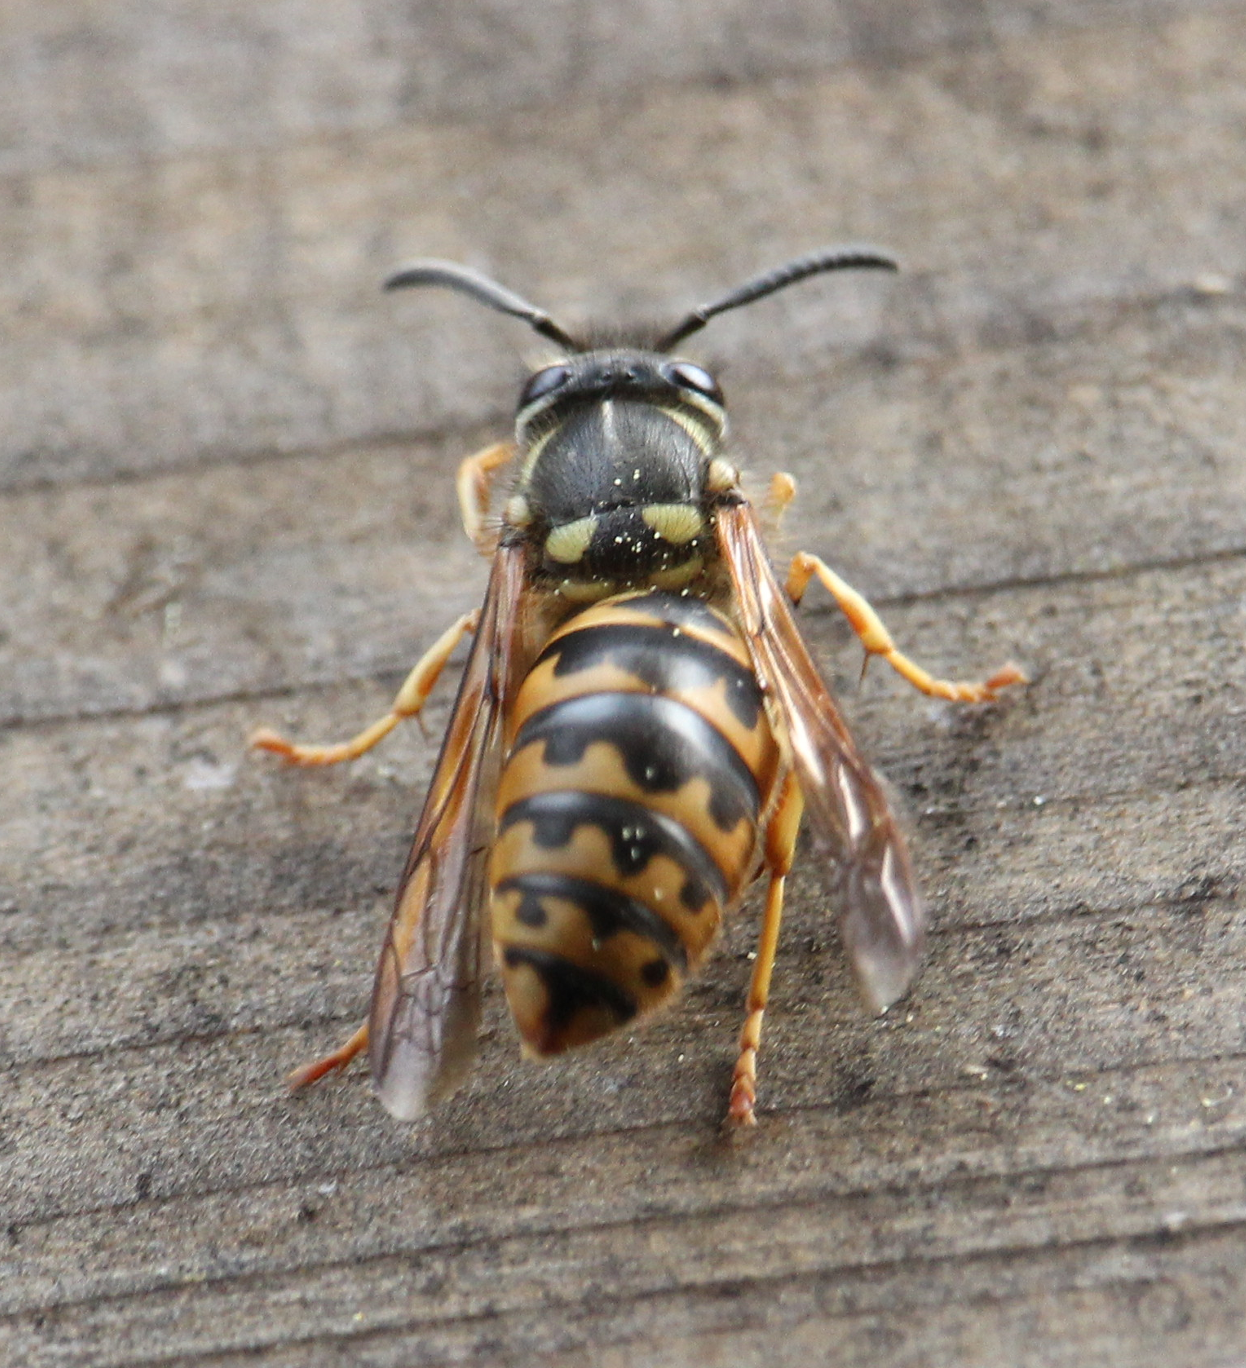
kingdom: Animalia
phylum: Arthropoda
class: Insecta
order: Hymenoptera
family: Vespidae
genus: Vespula
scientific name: Vespula germanica
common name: German wasp
